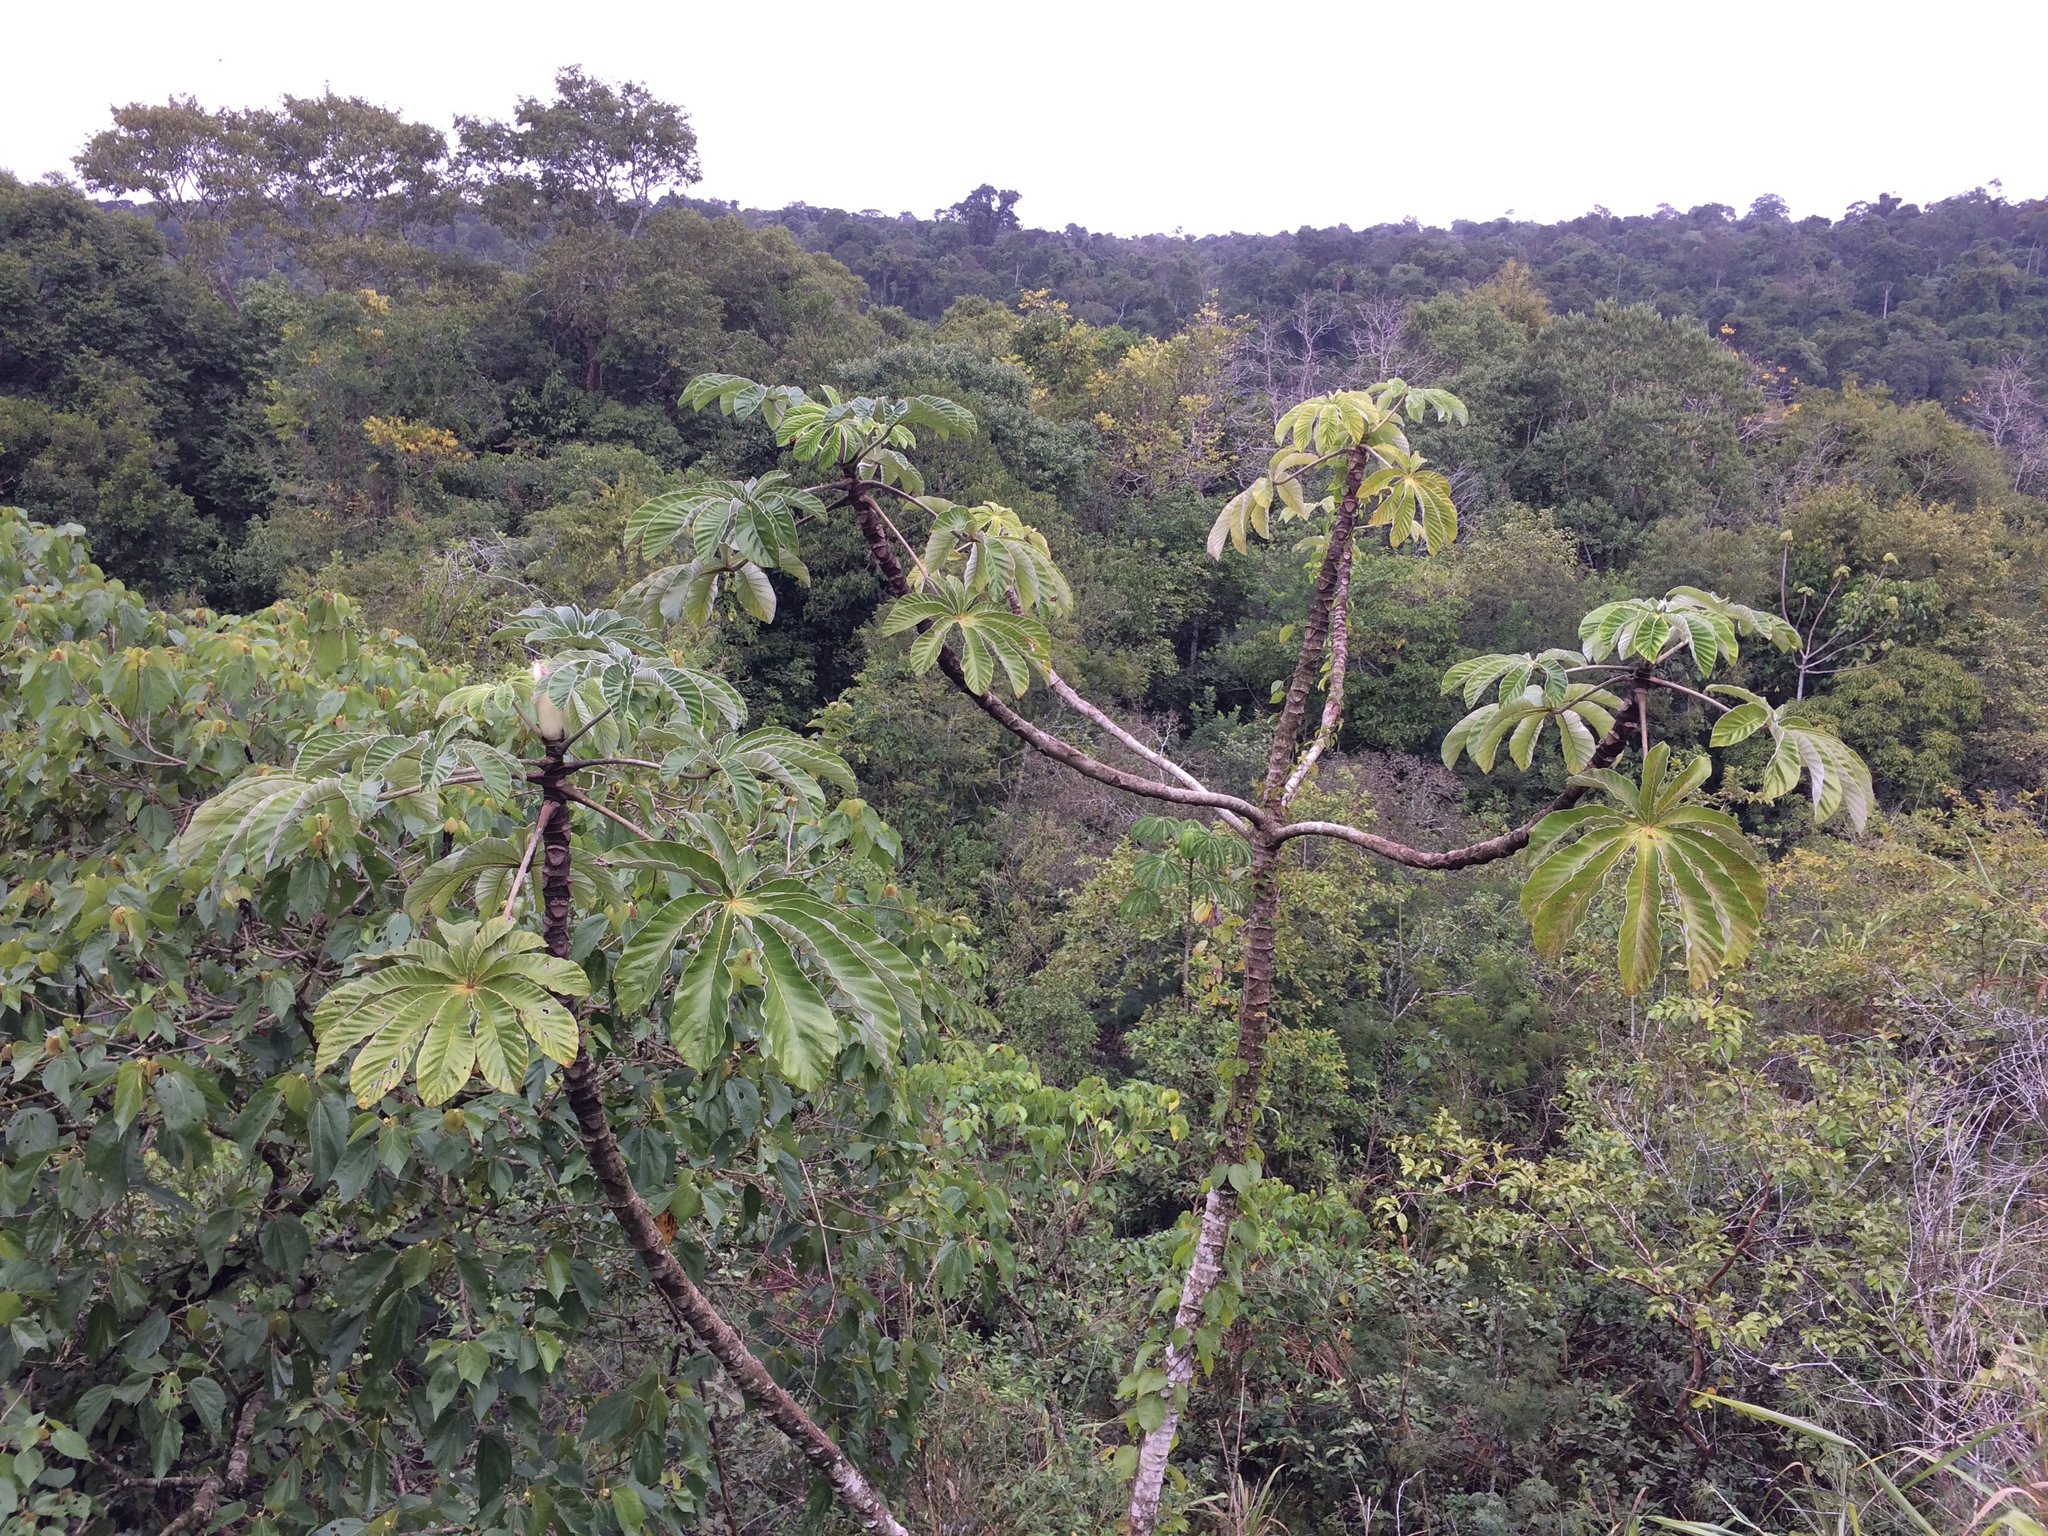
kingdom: Plantae
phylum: Tracheophyta
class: Magnoliopsida
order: Rosales
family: Urticaceae
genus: Cecropia
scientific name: Cecropia pachystachya
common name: Ambay pumpwood
